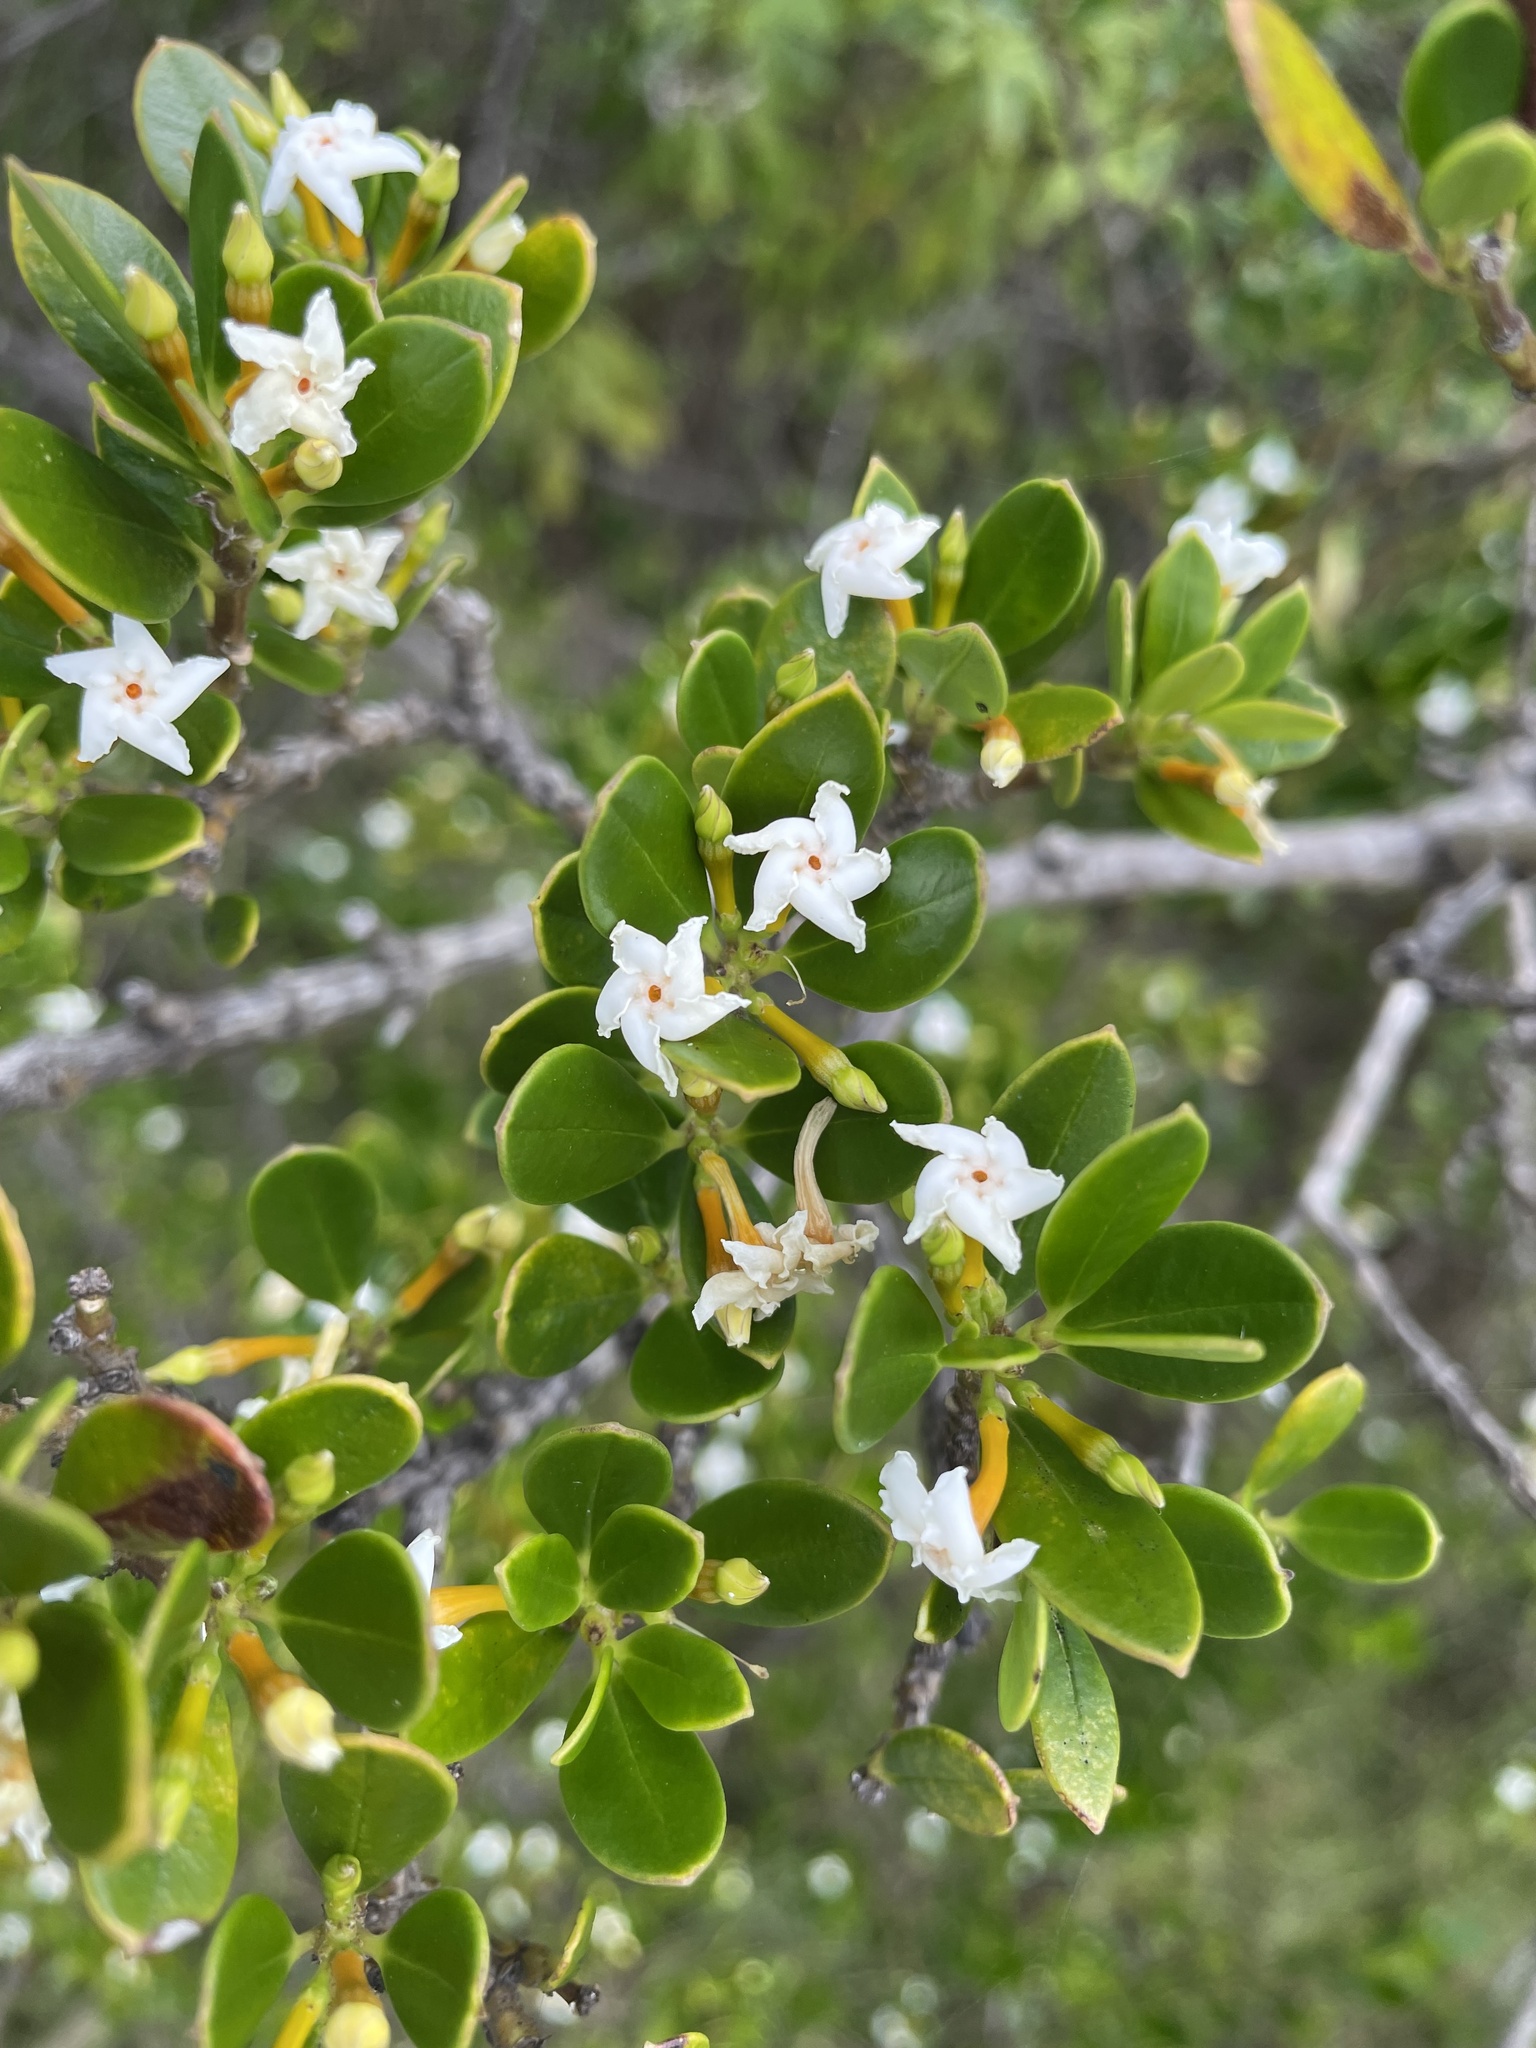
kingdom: Plantae
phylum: Tracheophyta
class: Magnoliopsida
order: Gentianales
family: Apocynaceae
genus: Alyxia
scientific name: Alyxia buxifolia
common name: Dysentery-bush
